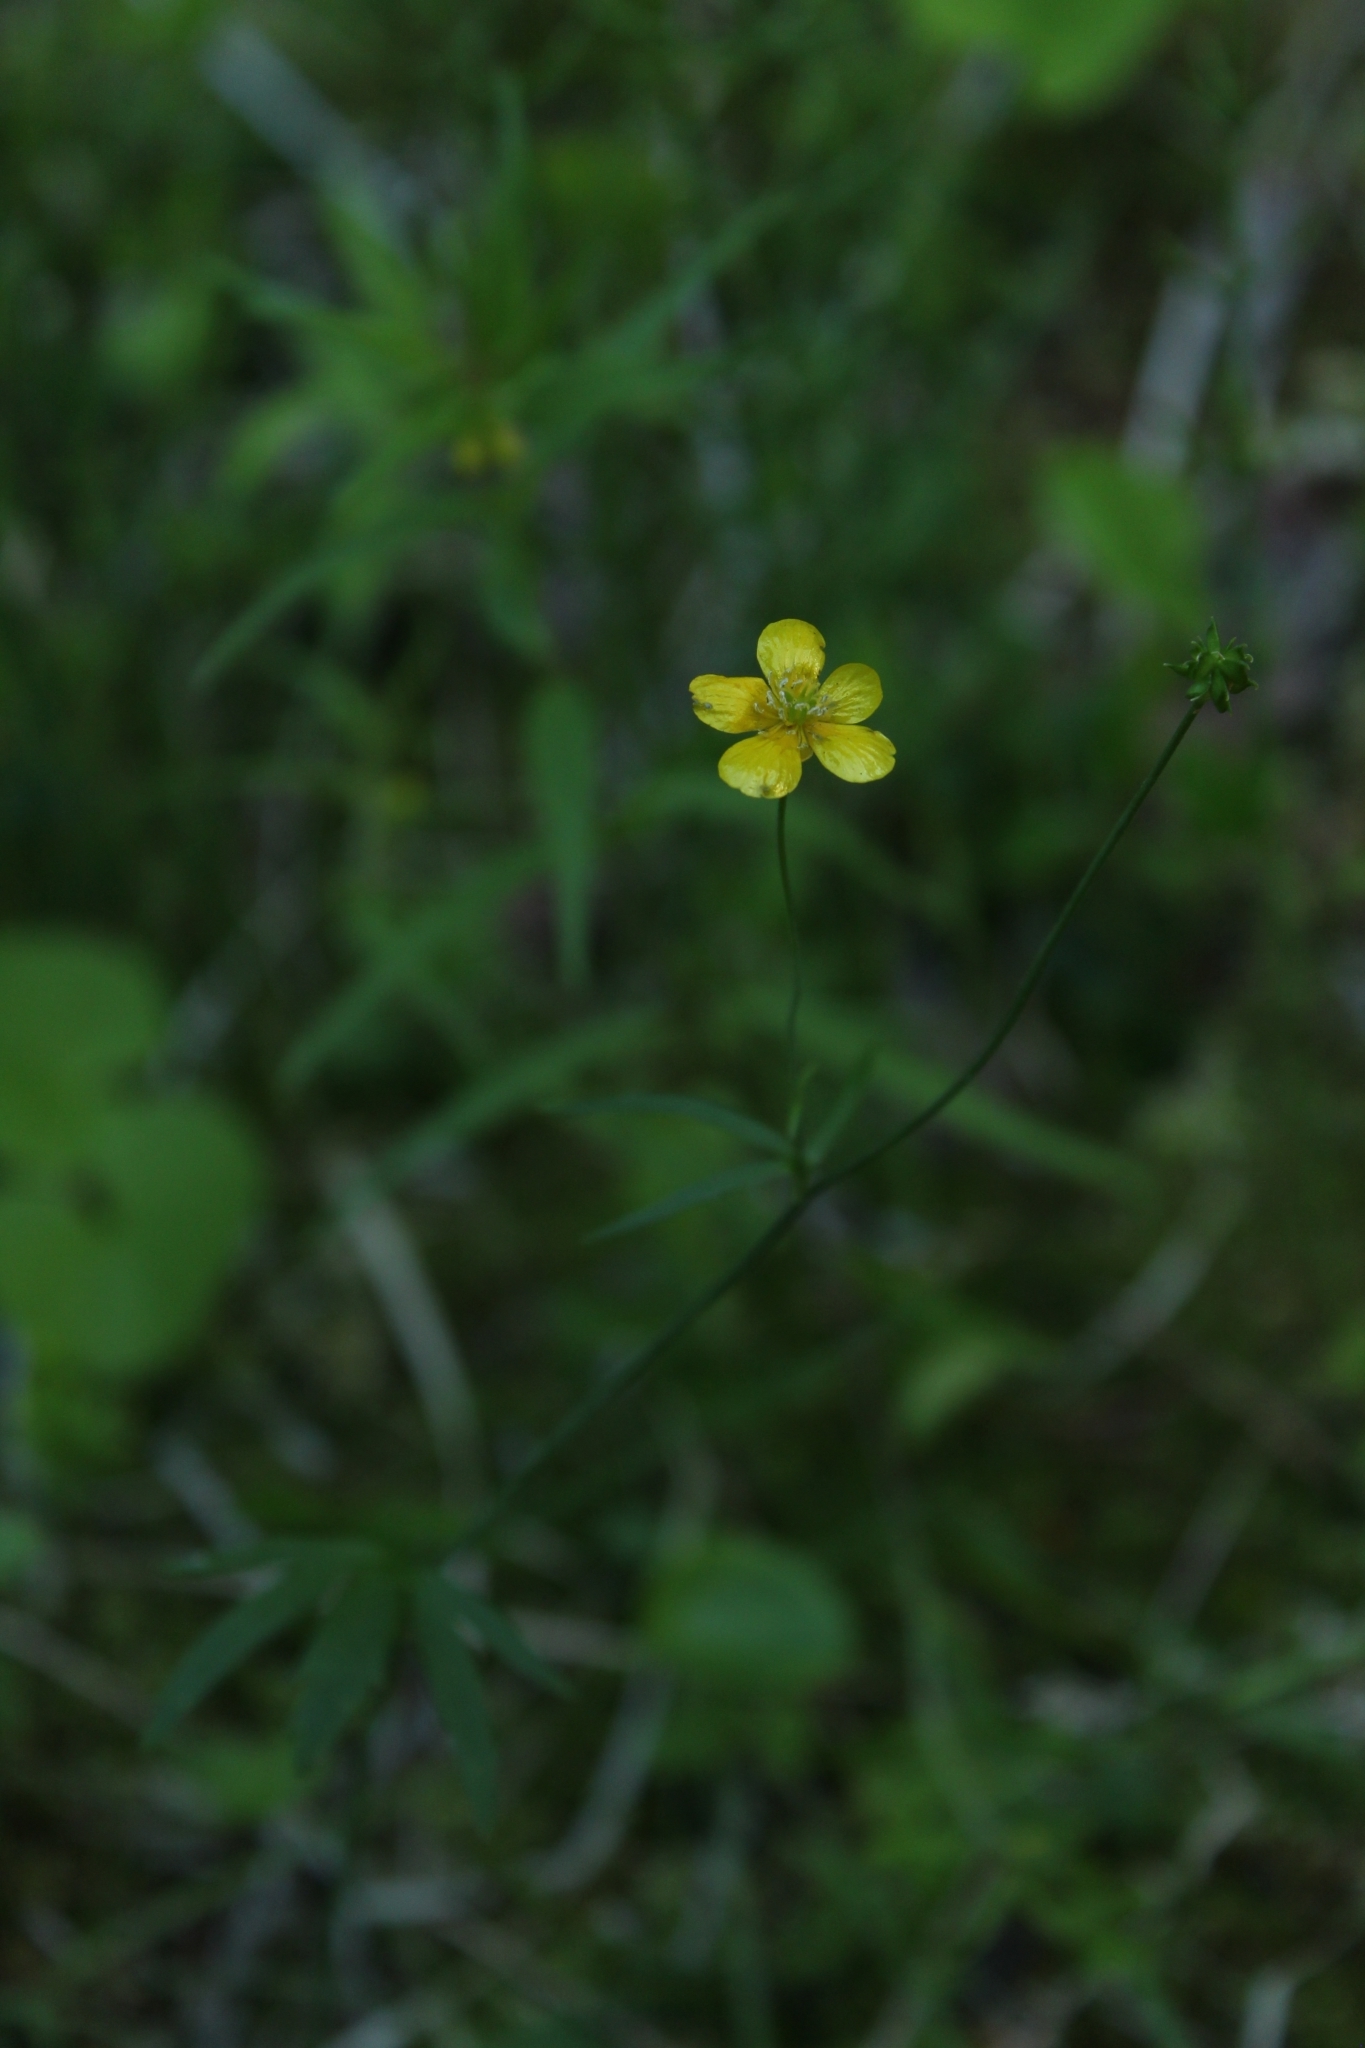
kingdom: Plantae
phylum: Tracheophyta
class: Magnoliopsida
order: Ranunculales
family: Ranunculaceae
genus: Ranunculus
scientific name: Ranunculus propinquus
